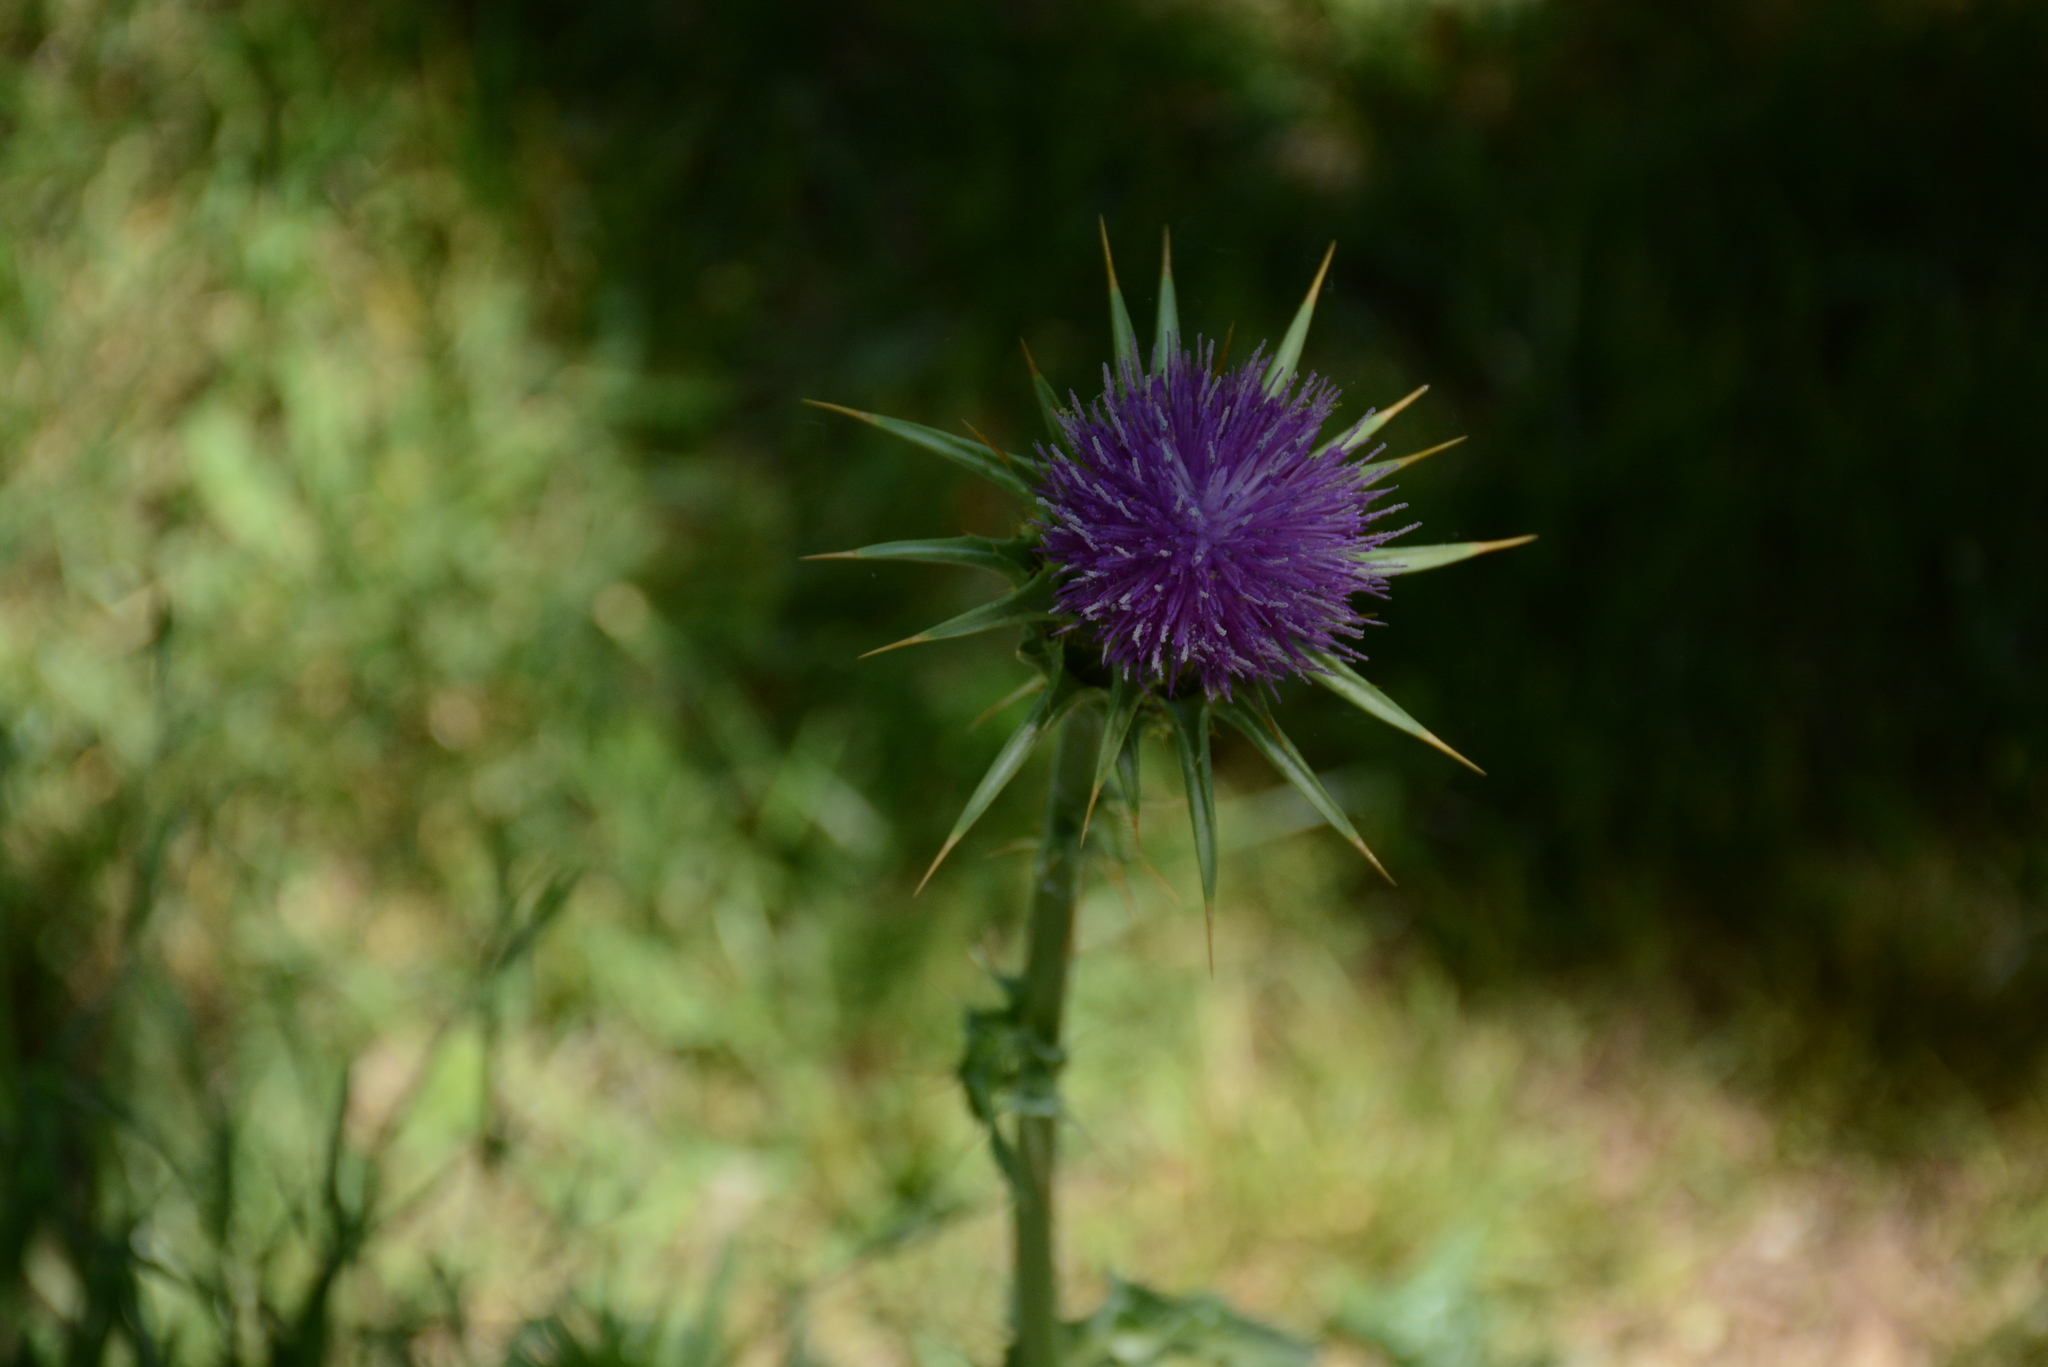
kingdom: Plantae
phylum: Tracheophyta
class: Magnoliopsida
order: Asterales
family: Asteraceae
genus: Silybum
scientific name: Silybum marianum
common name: Milk thistle
